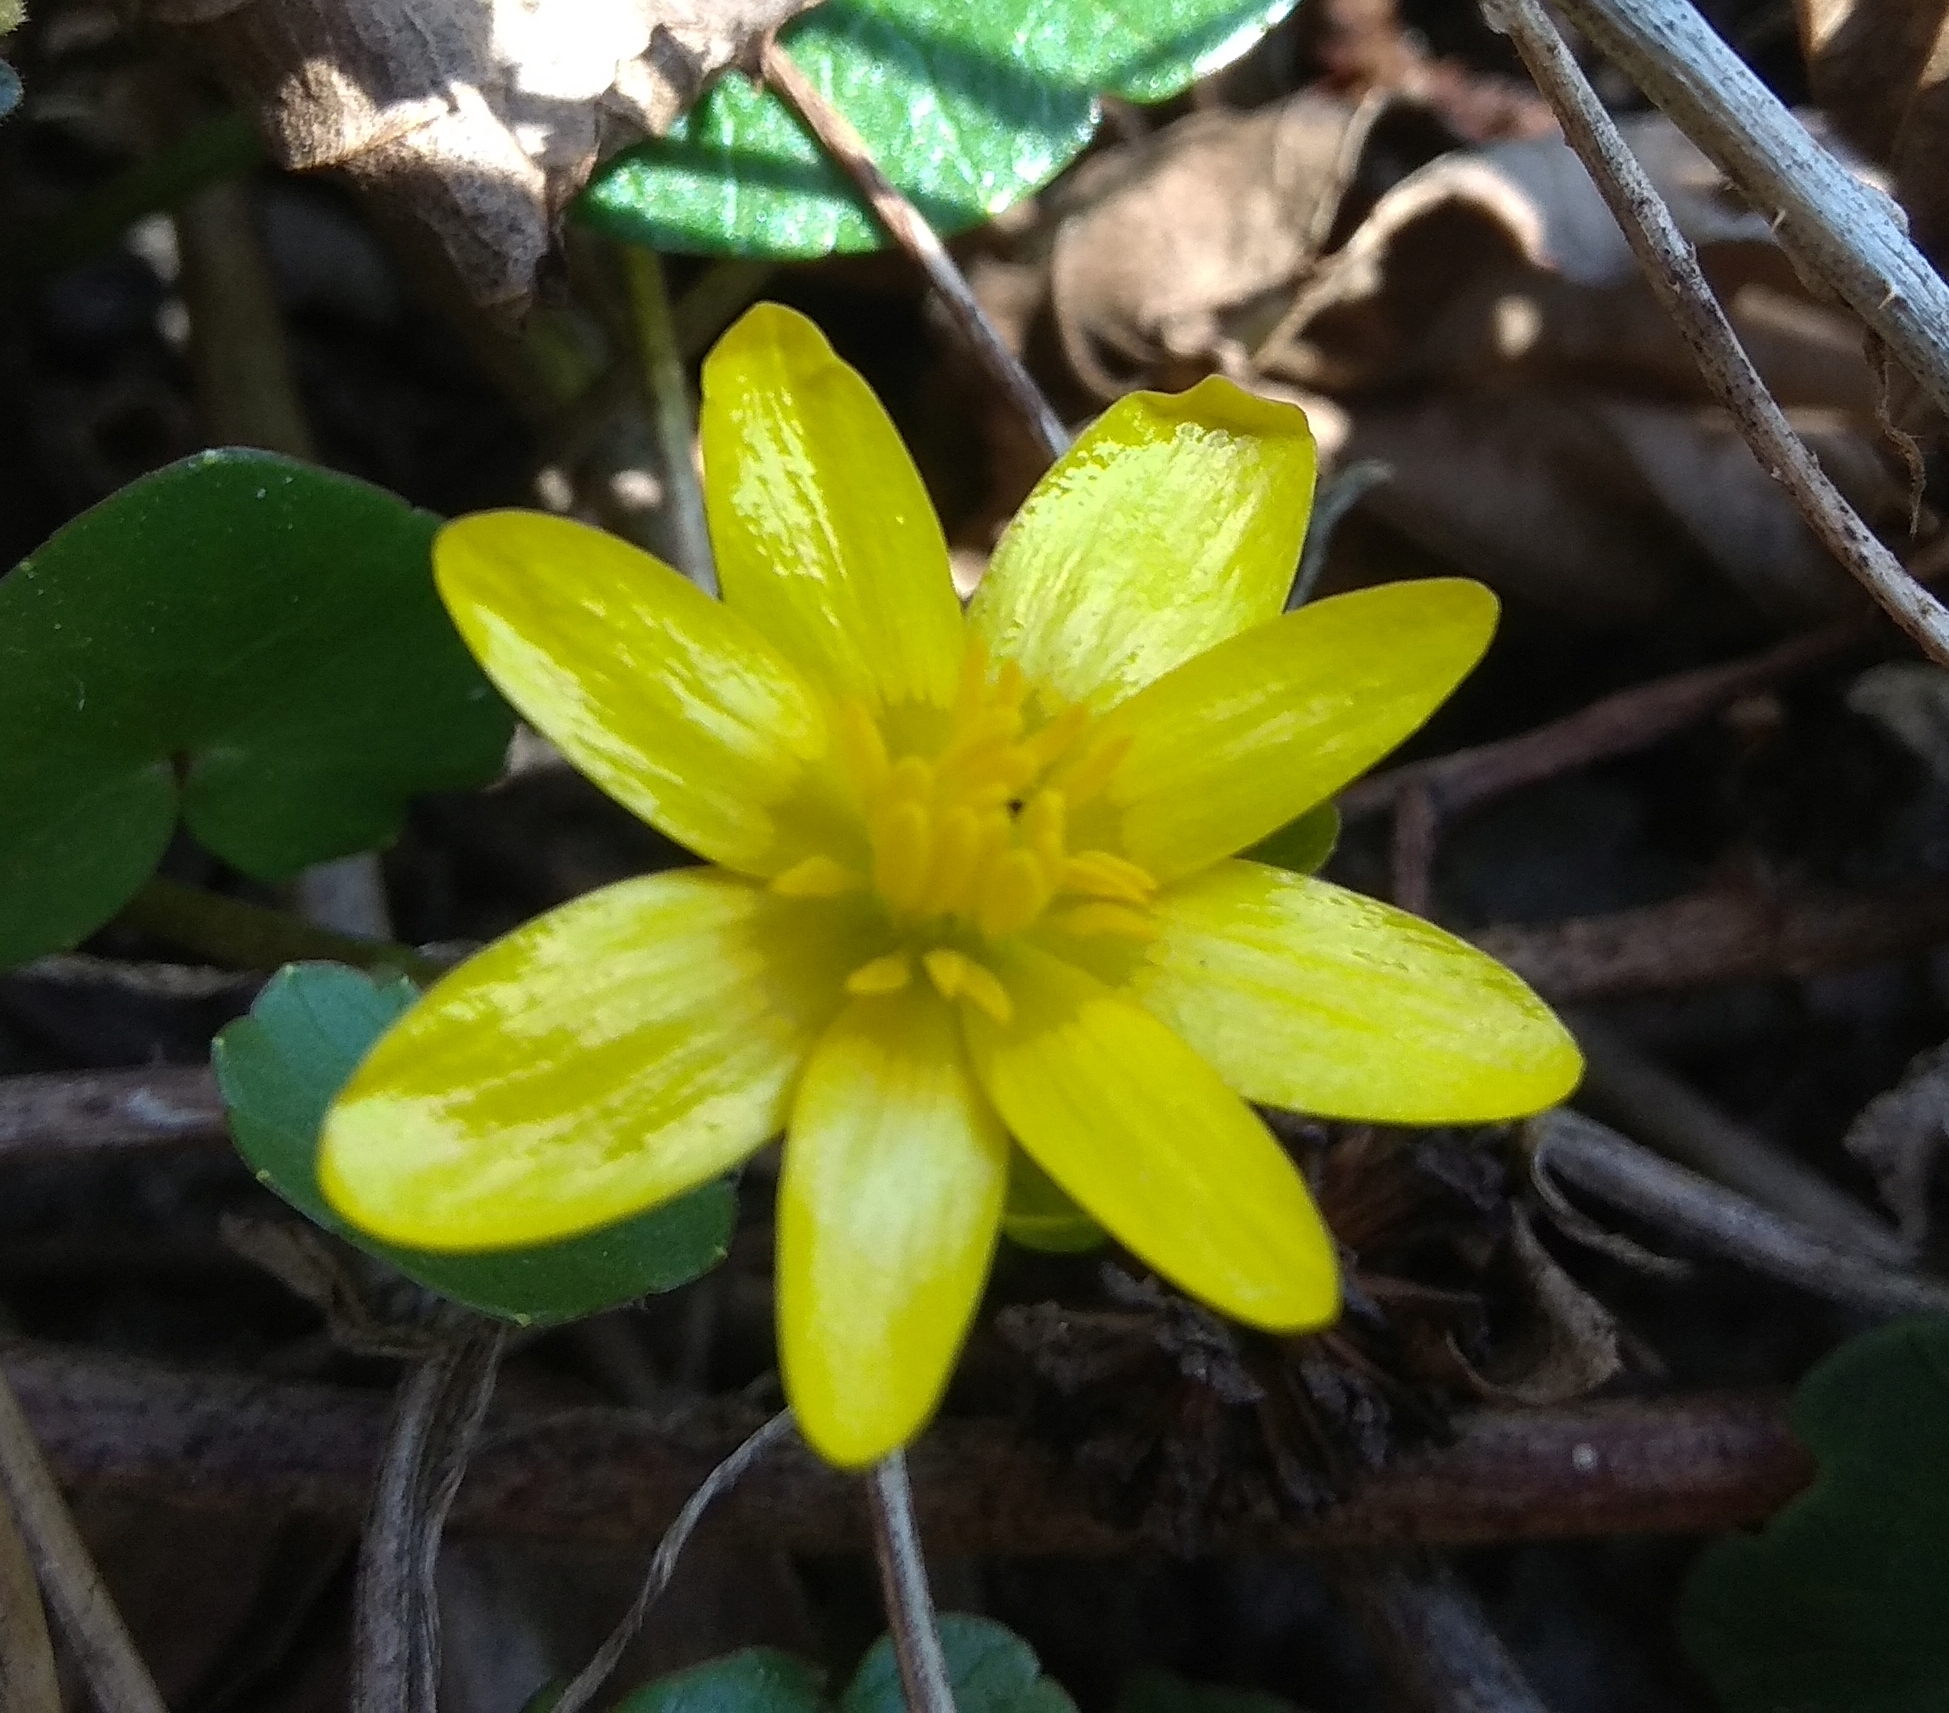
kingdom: Plantae
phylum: Tracheophyta
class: Magnoliopsida
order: Ranunculales
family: Ranunculaceae
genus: Ficaria
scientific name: Ficaria verna
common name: Lesser celandine
